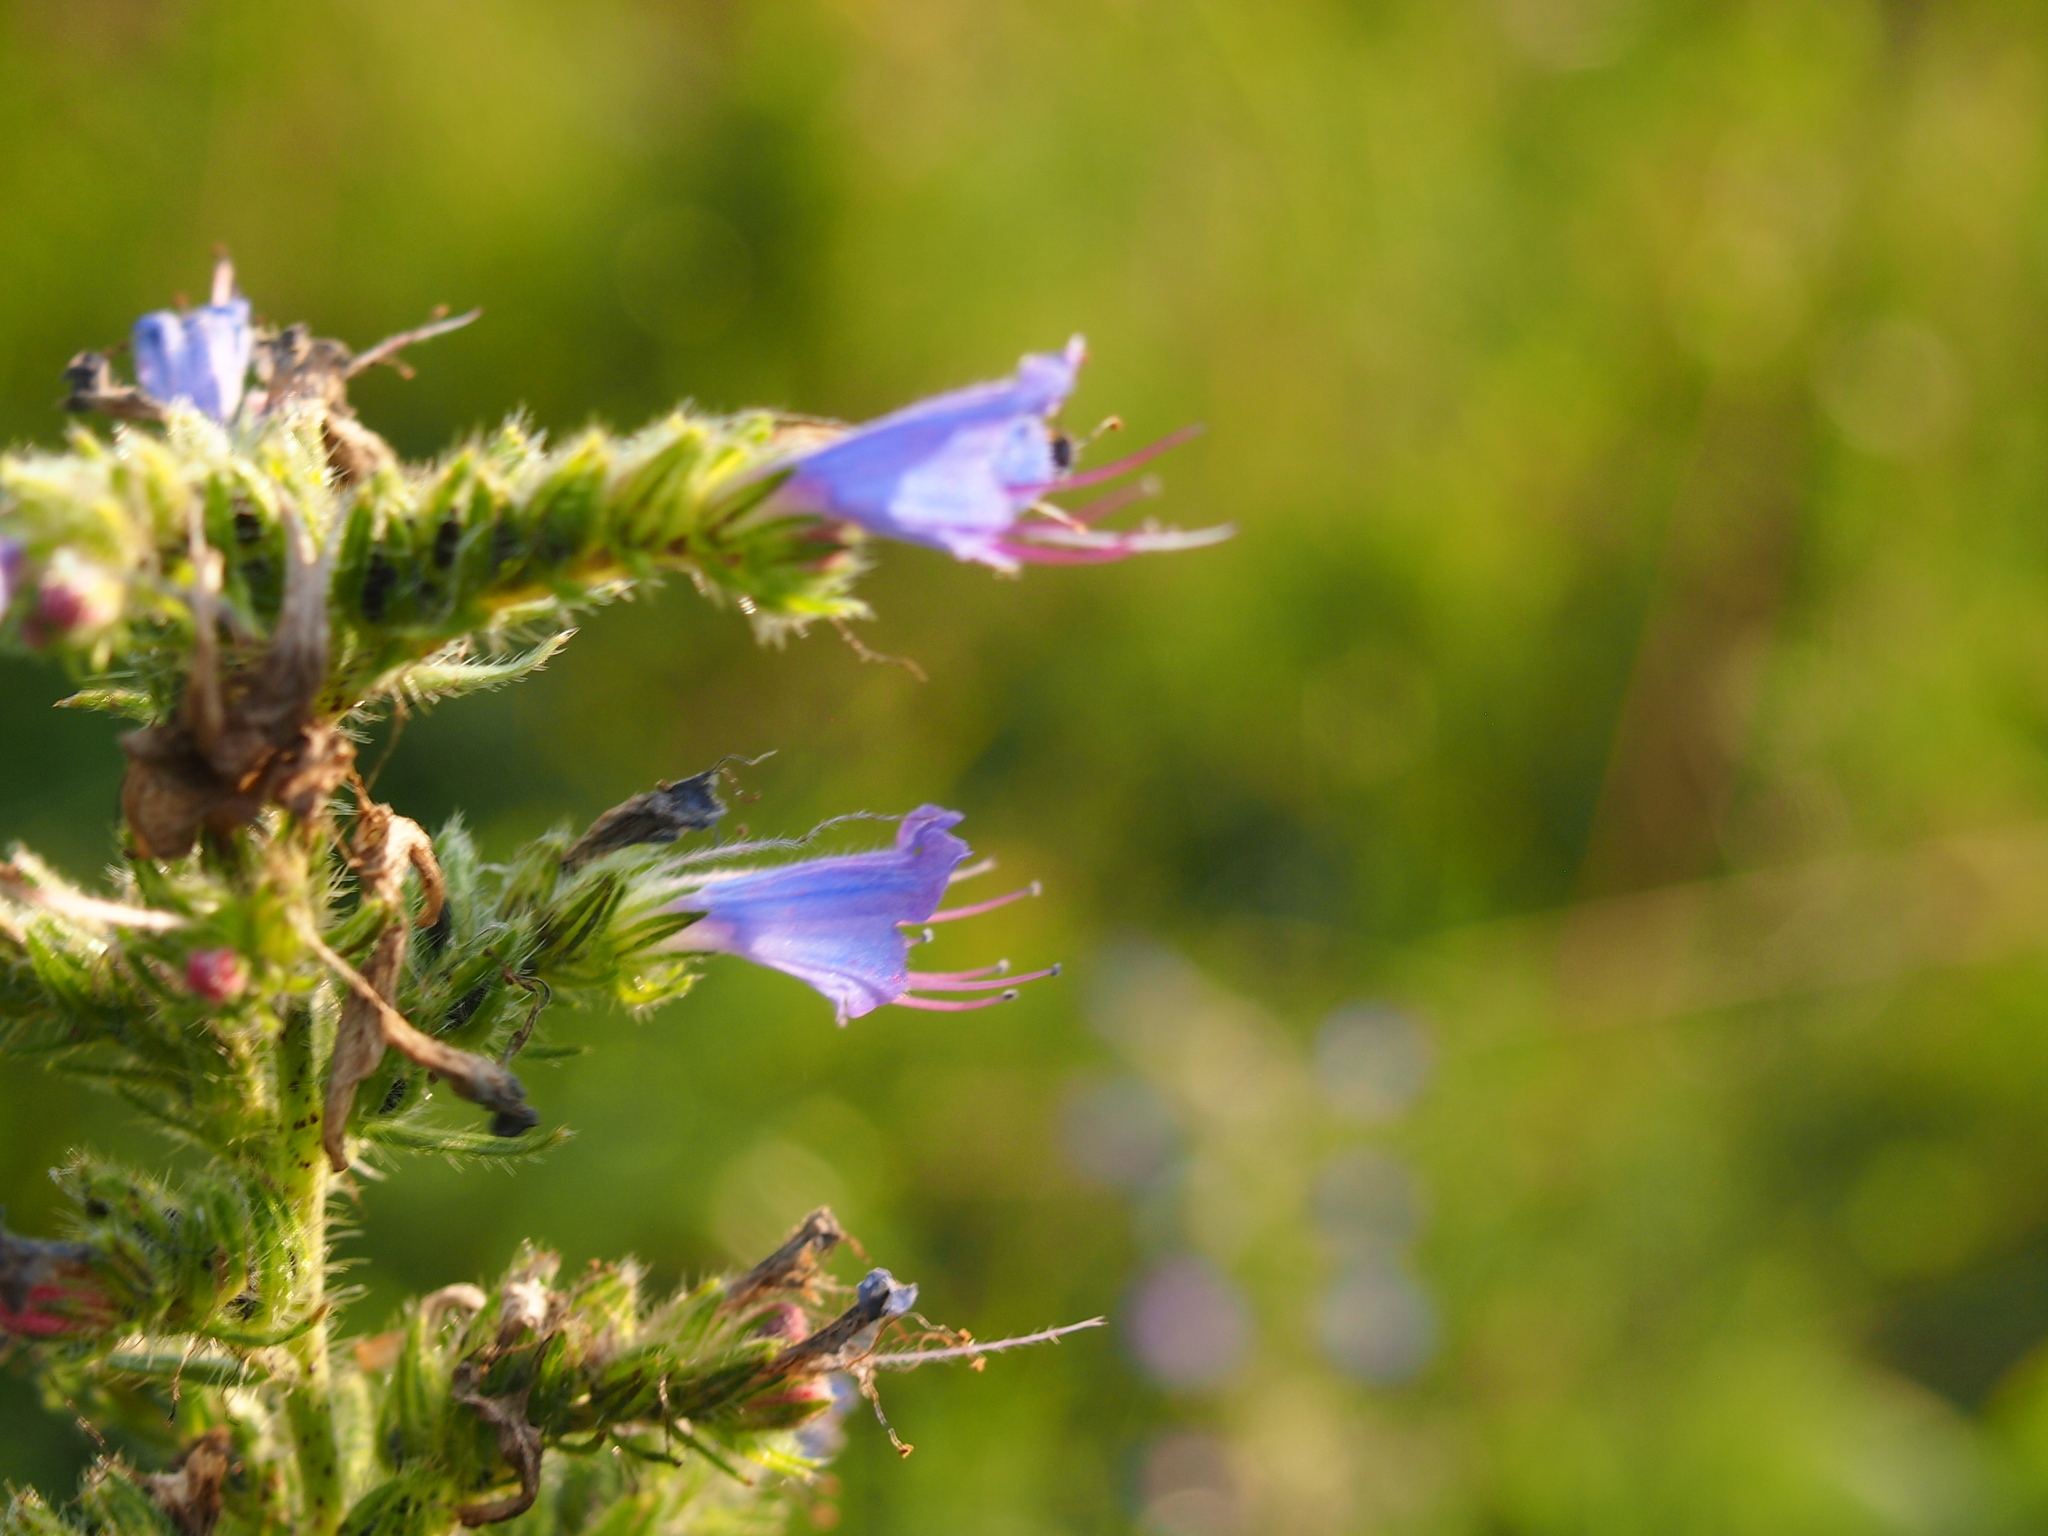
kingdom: Plantae
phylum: Tracheophyta
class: Magnoliopsida
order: Boraginales
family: Boraginaceae
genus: Echium
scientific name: Echium vulgare
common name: Common viper's bugloss
